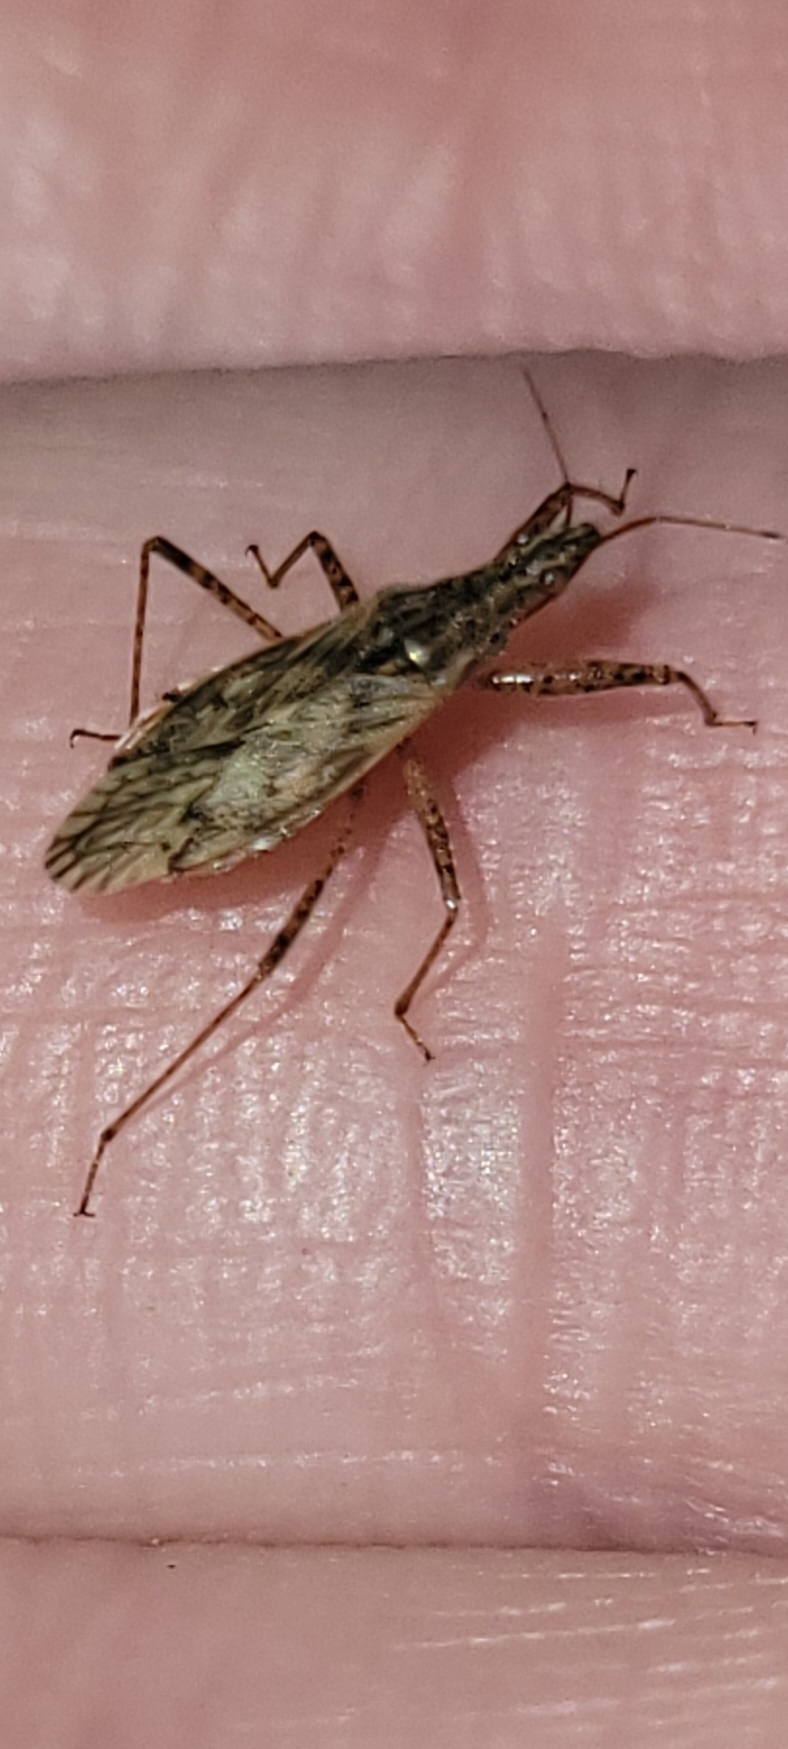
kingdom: Animalia
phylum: Arthropoda
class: Insecta
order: Hemiptera
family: Nabidae
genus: Nabis
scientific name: Nabis americoferus
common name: Common damsel bug
